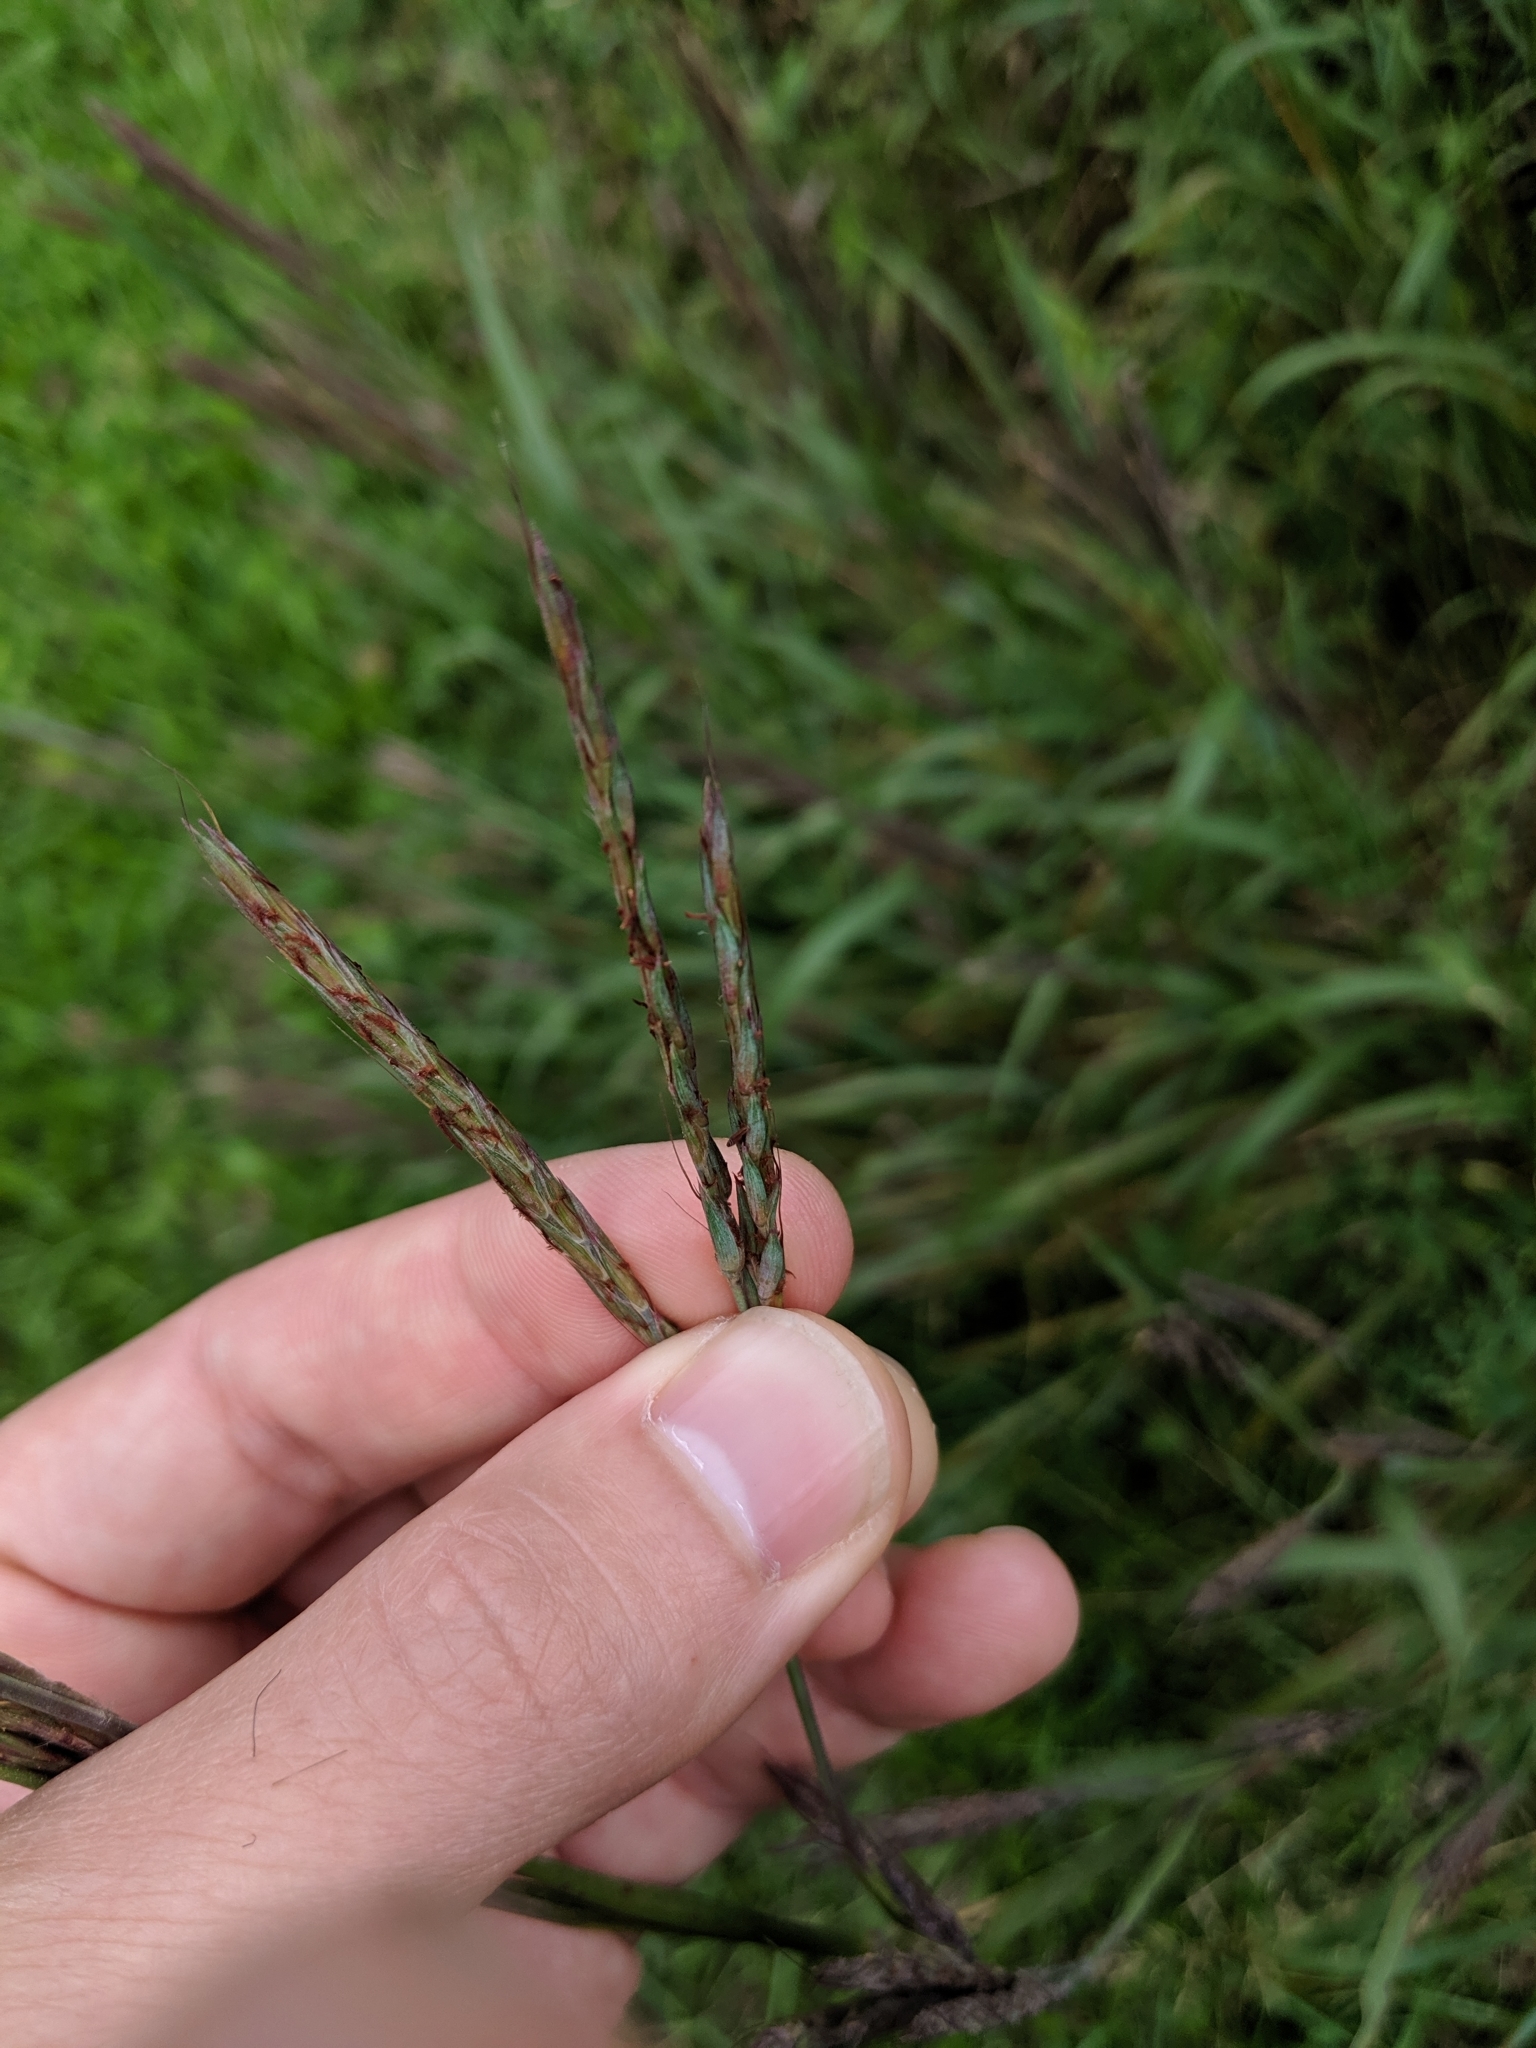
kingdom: Plantae
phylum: Tracheophyta
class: Liliopsida
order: Poales
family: Poaceae
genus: Andropogon
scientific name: Andropogon gerardi
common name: Big bluestem
